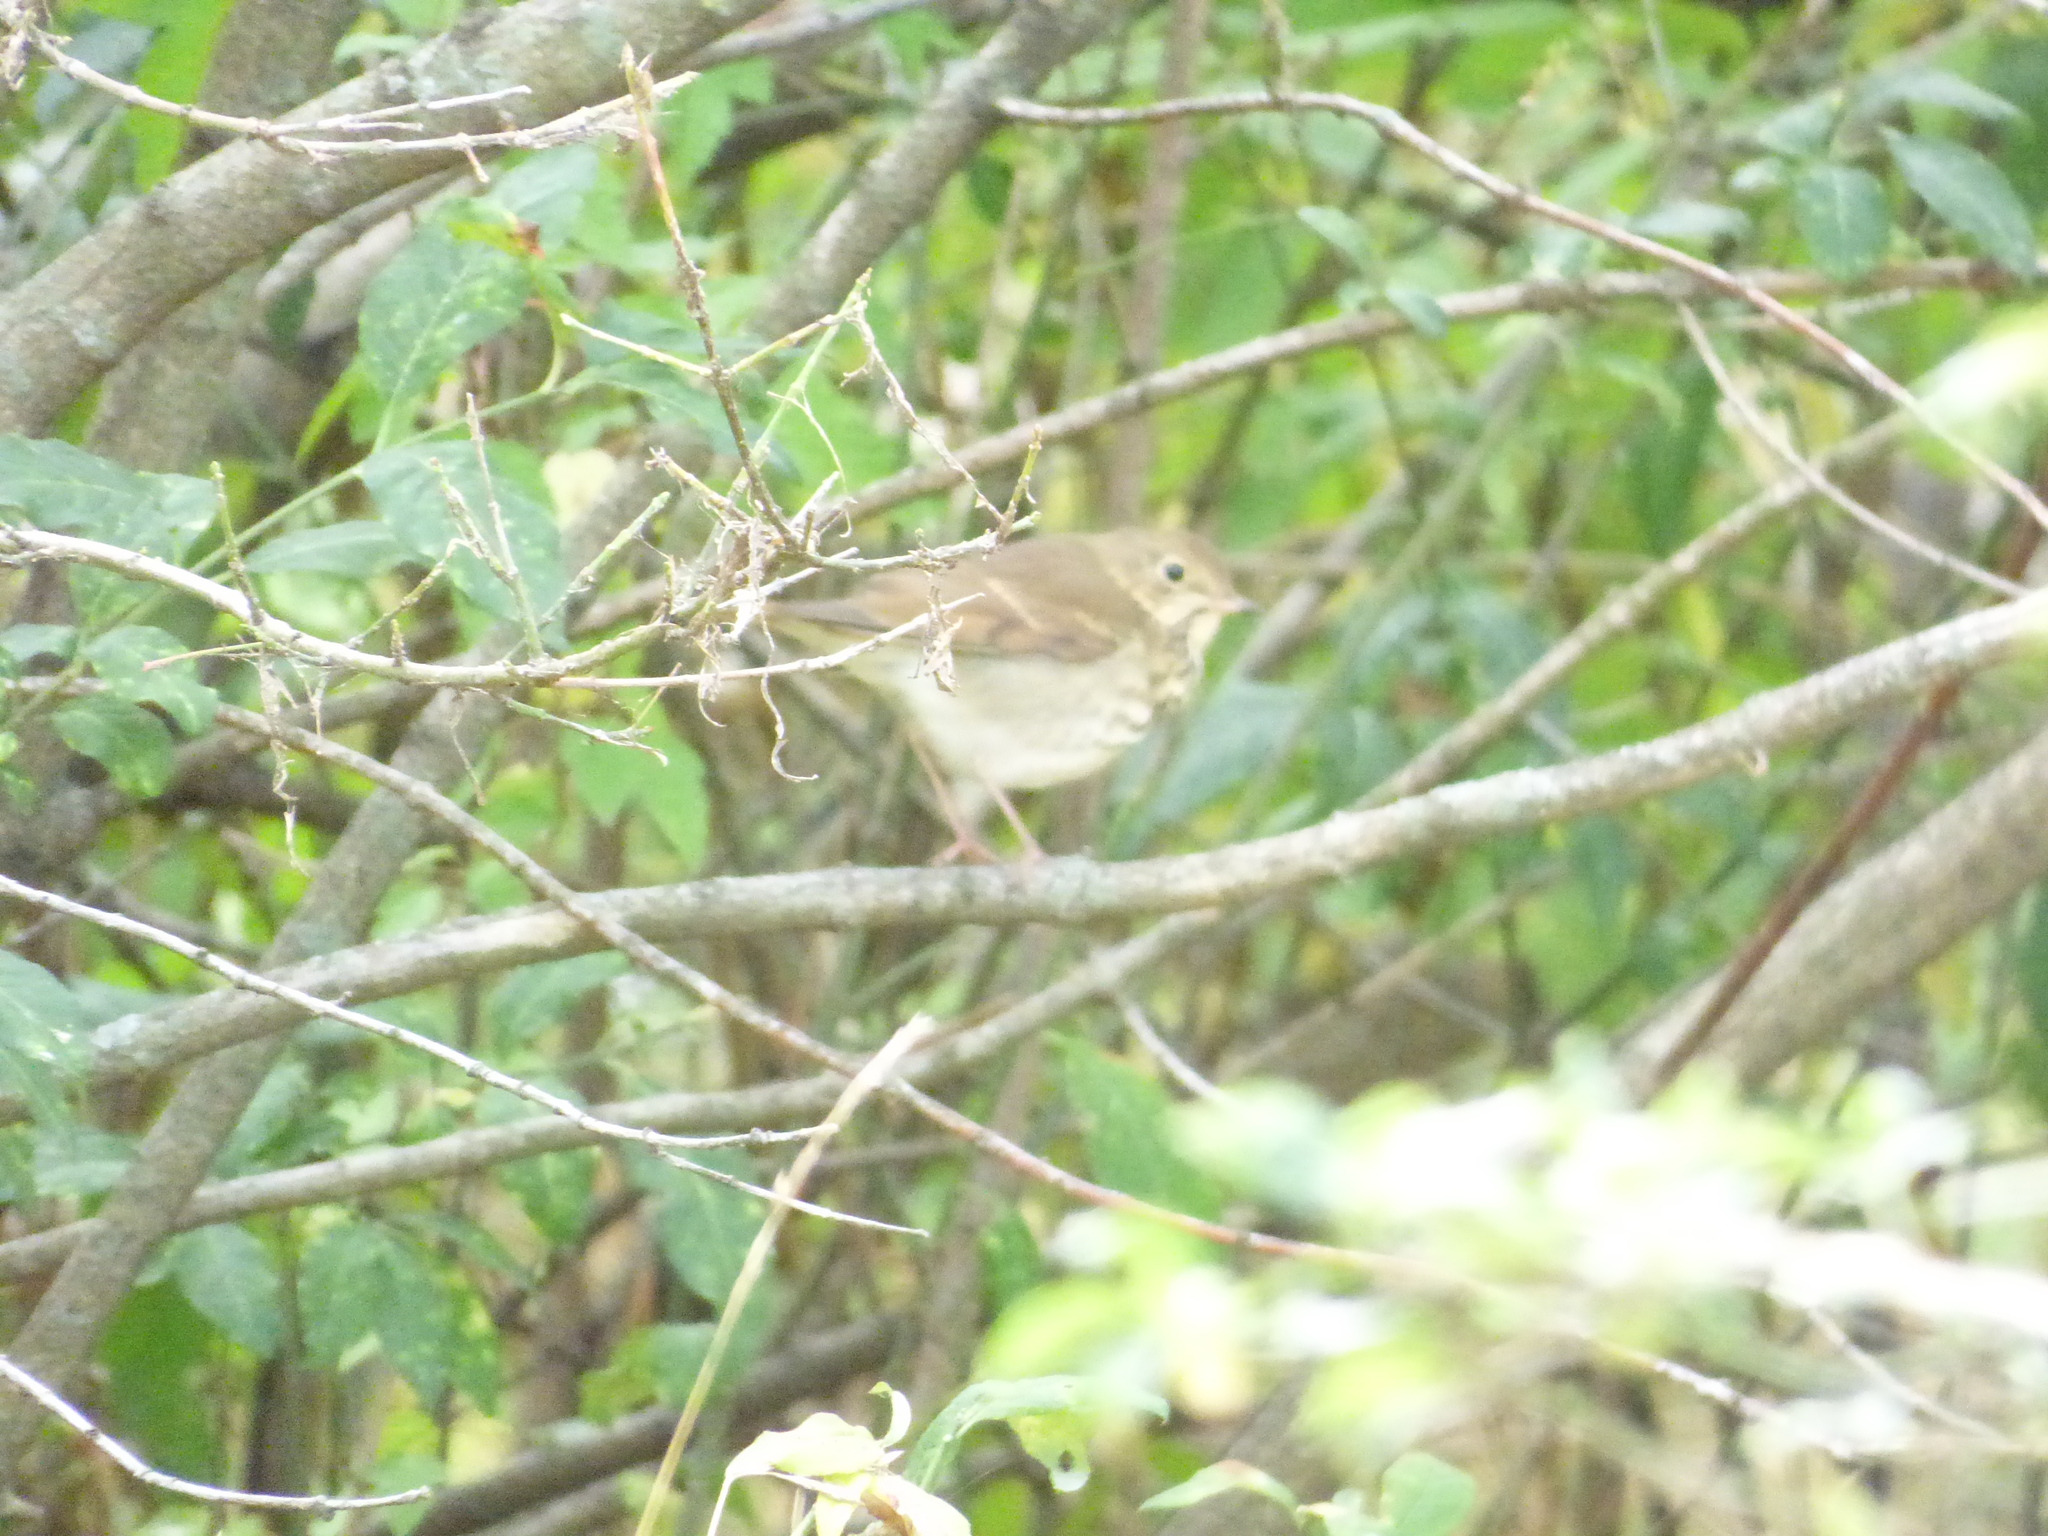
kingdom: Animalia
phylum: Chordata
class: Aves
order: Passeriformes
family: Turdidae
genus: Catharus
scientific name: Catharus guttatus
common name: Hermit thrush
